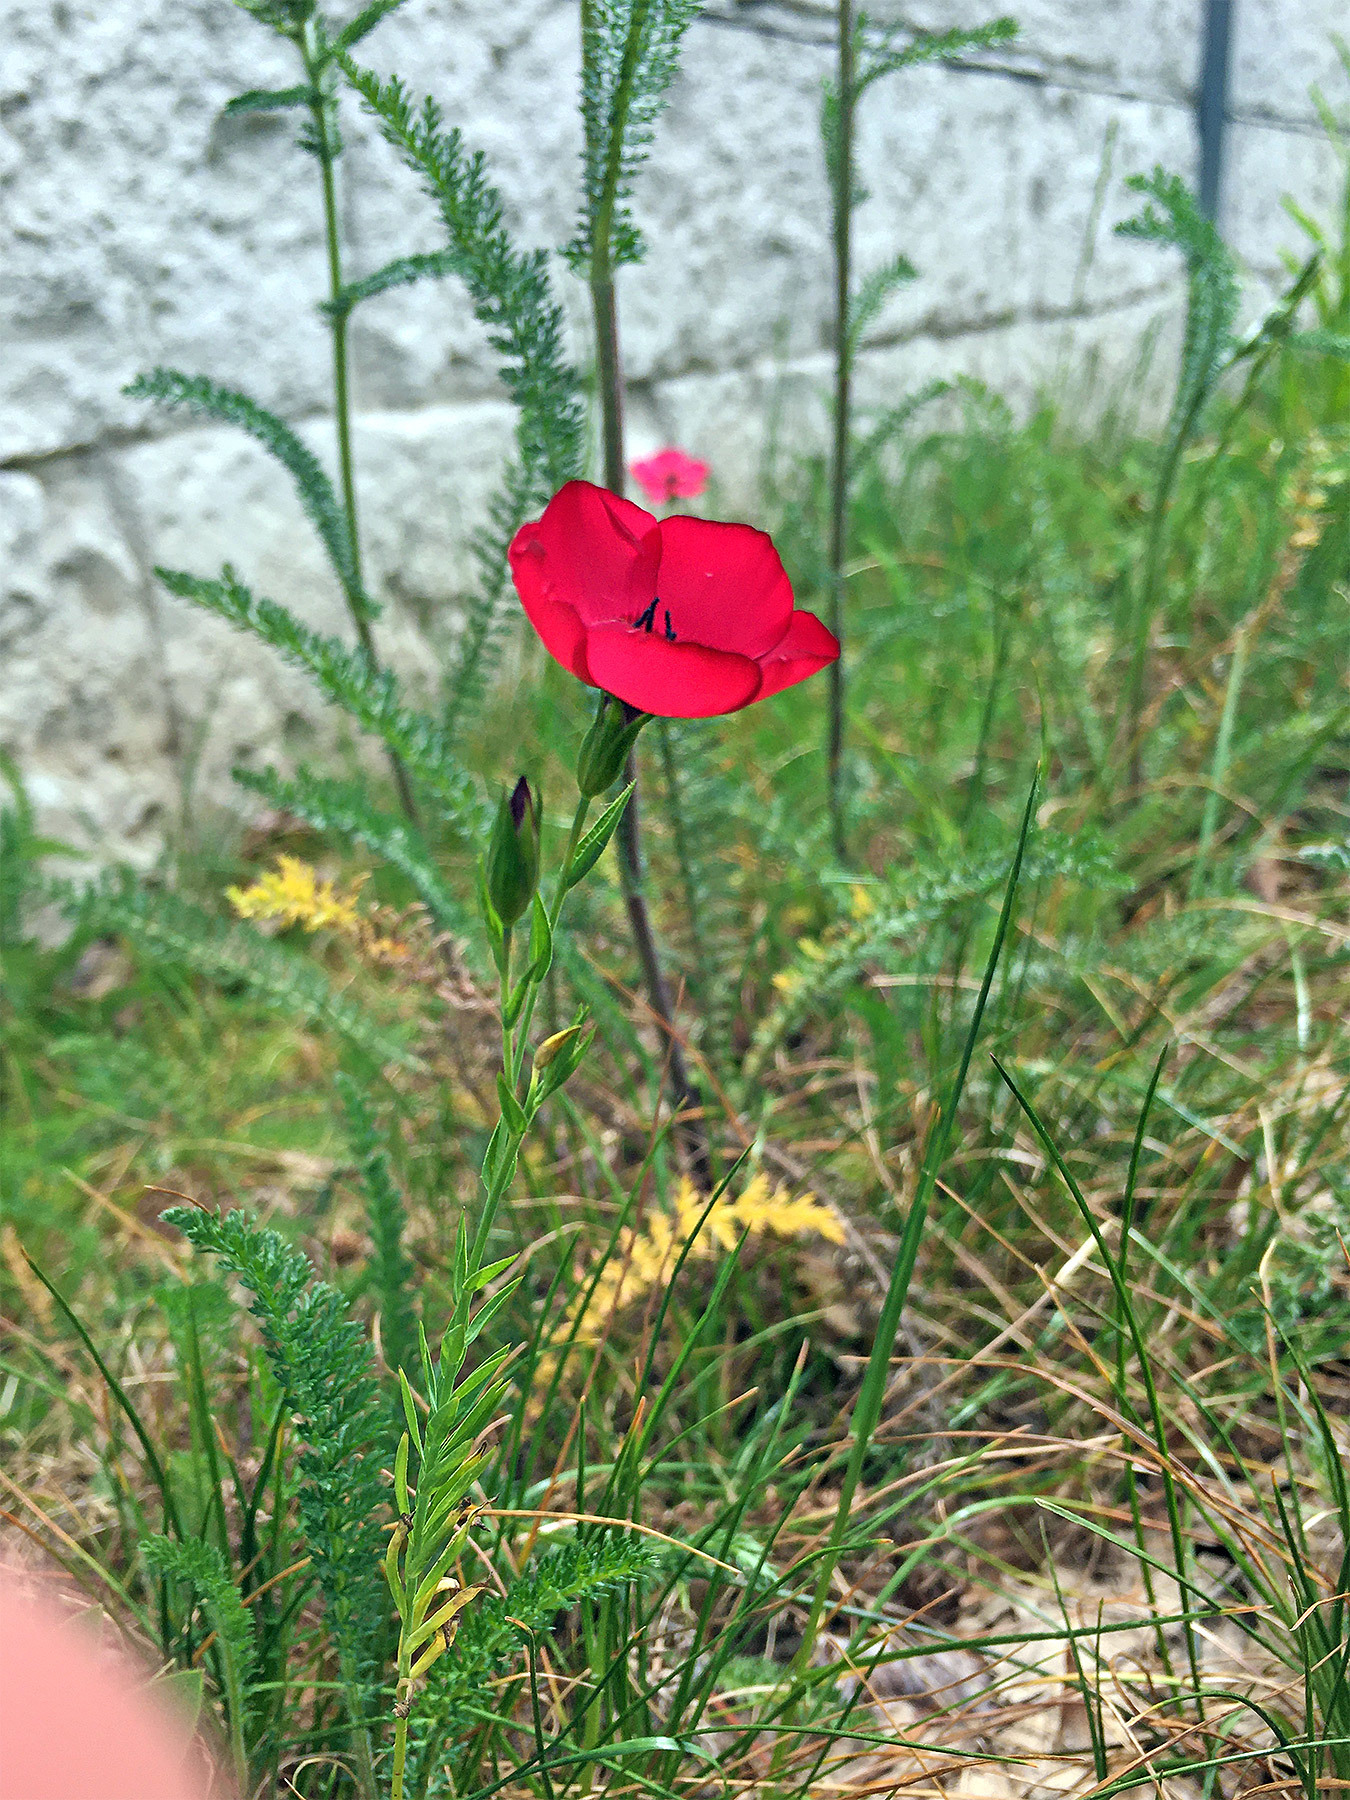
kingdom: Plantae
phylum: Tracheophyta
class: Magnoliopsida
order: Malpighiales
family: Linaceae
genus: Linum
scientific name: Linum grandiflorum
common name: Crimson flax
